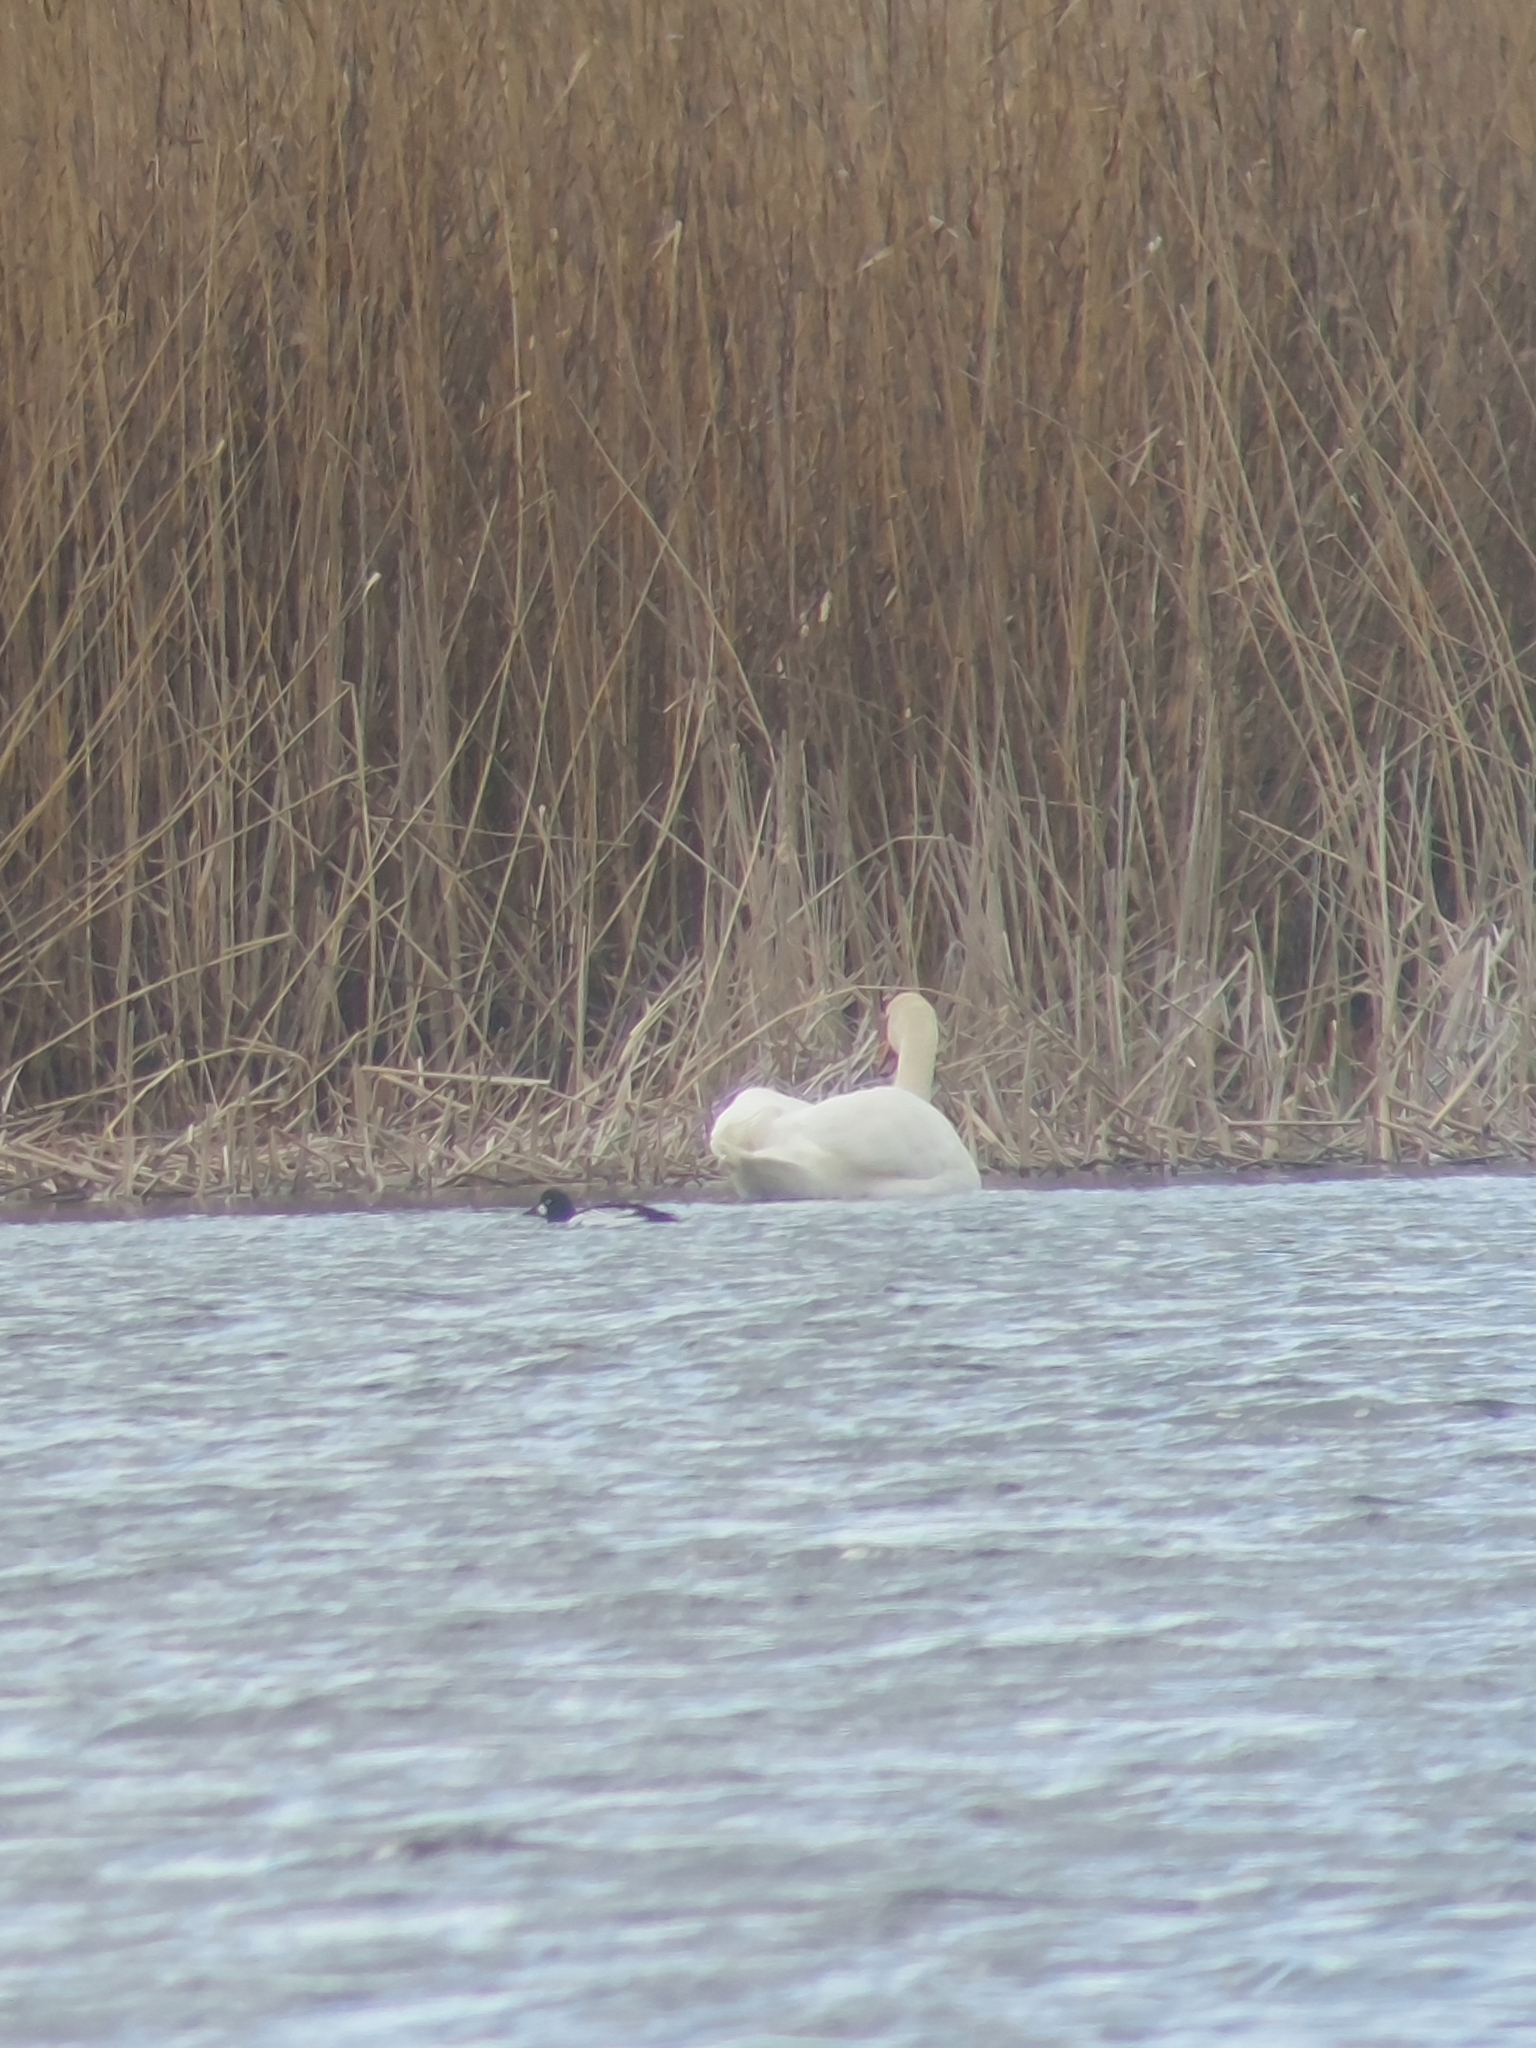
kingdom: Animalia
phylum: Chordata
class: Aves
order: Anseriformes
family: Anatidae
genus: Bucephala
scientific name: Bucephala clangula
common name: Common goldeneye
